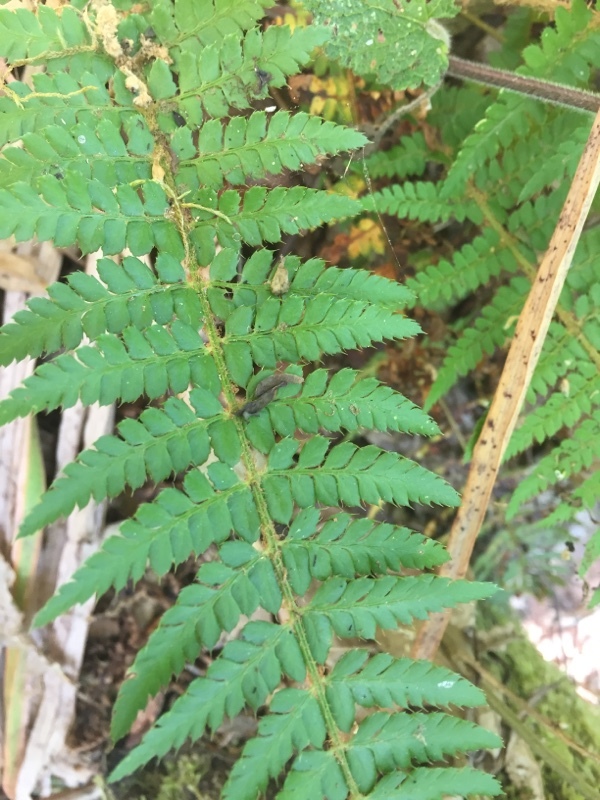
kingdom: Plantae
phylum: Tracheophyta
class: Polypodiopsida
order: Polypodiales
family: Dryopteridaceae
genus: Polystichum
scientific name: Polystichum setiferum
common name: Soft shield-fern
